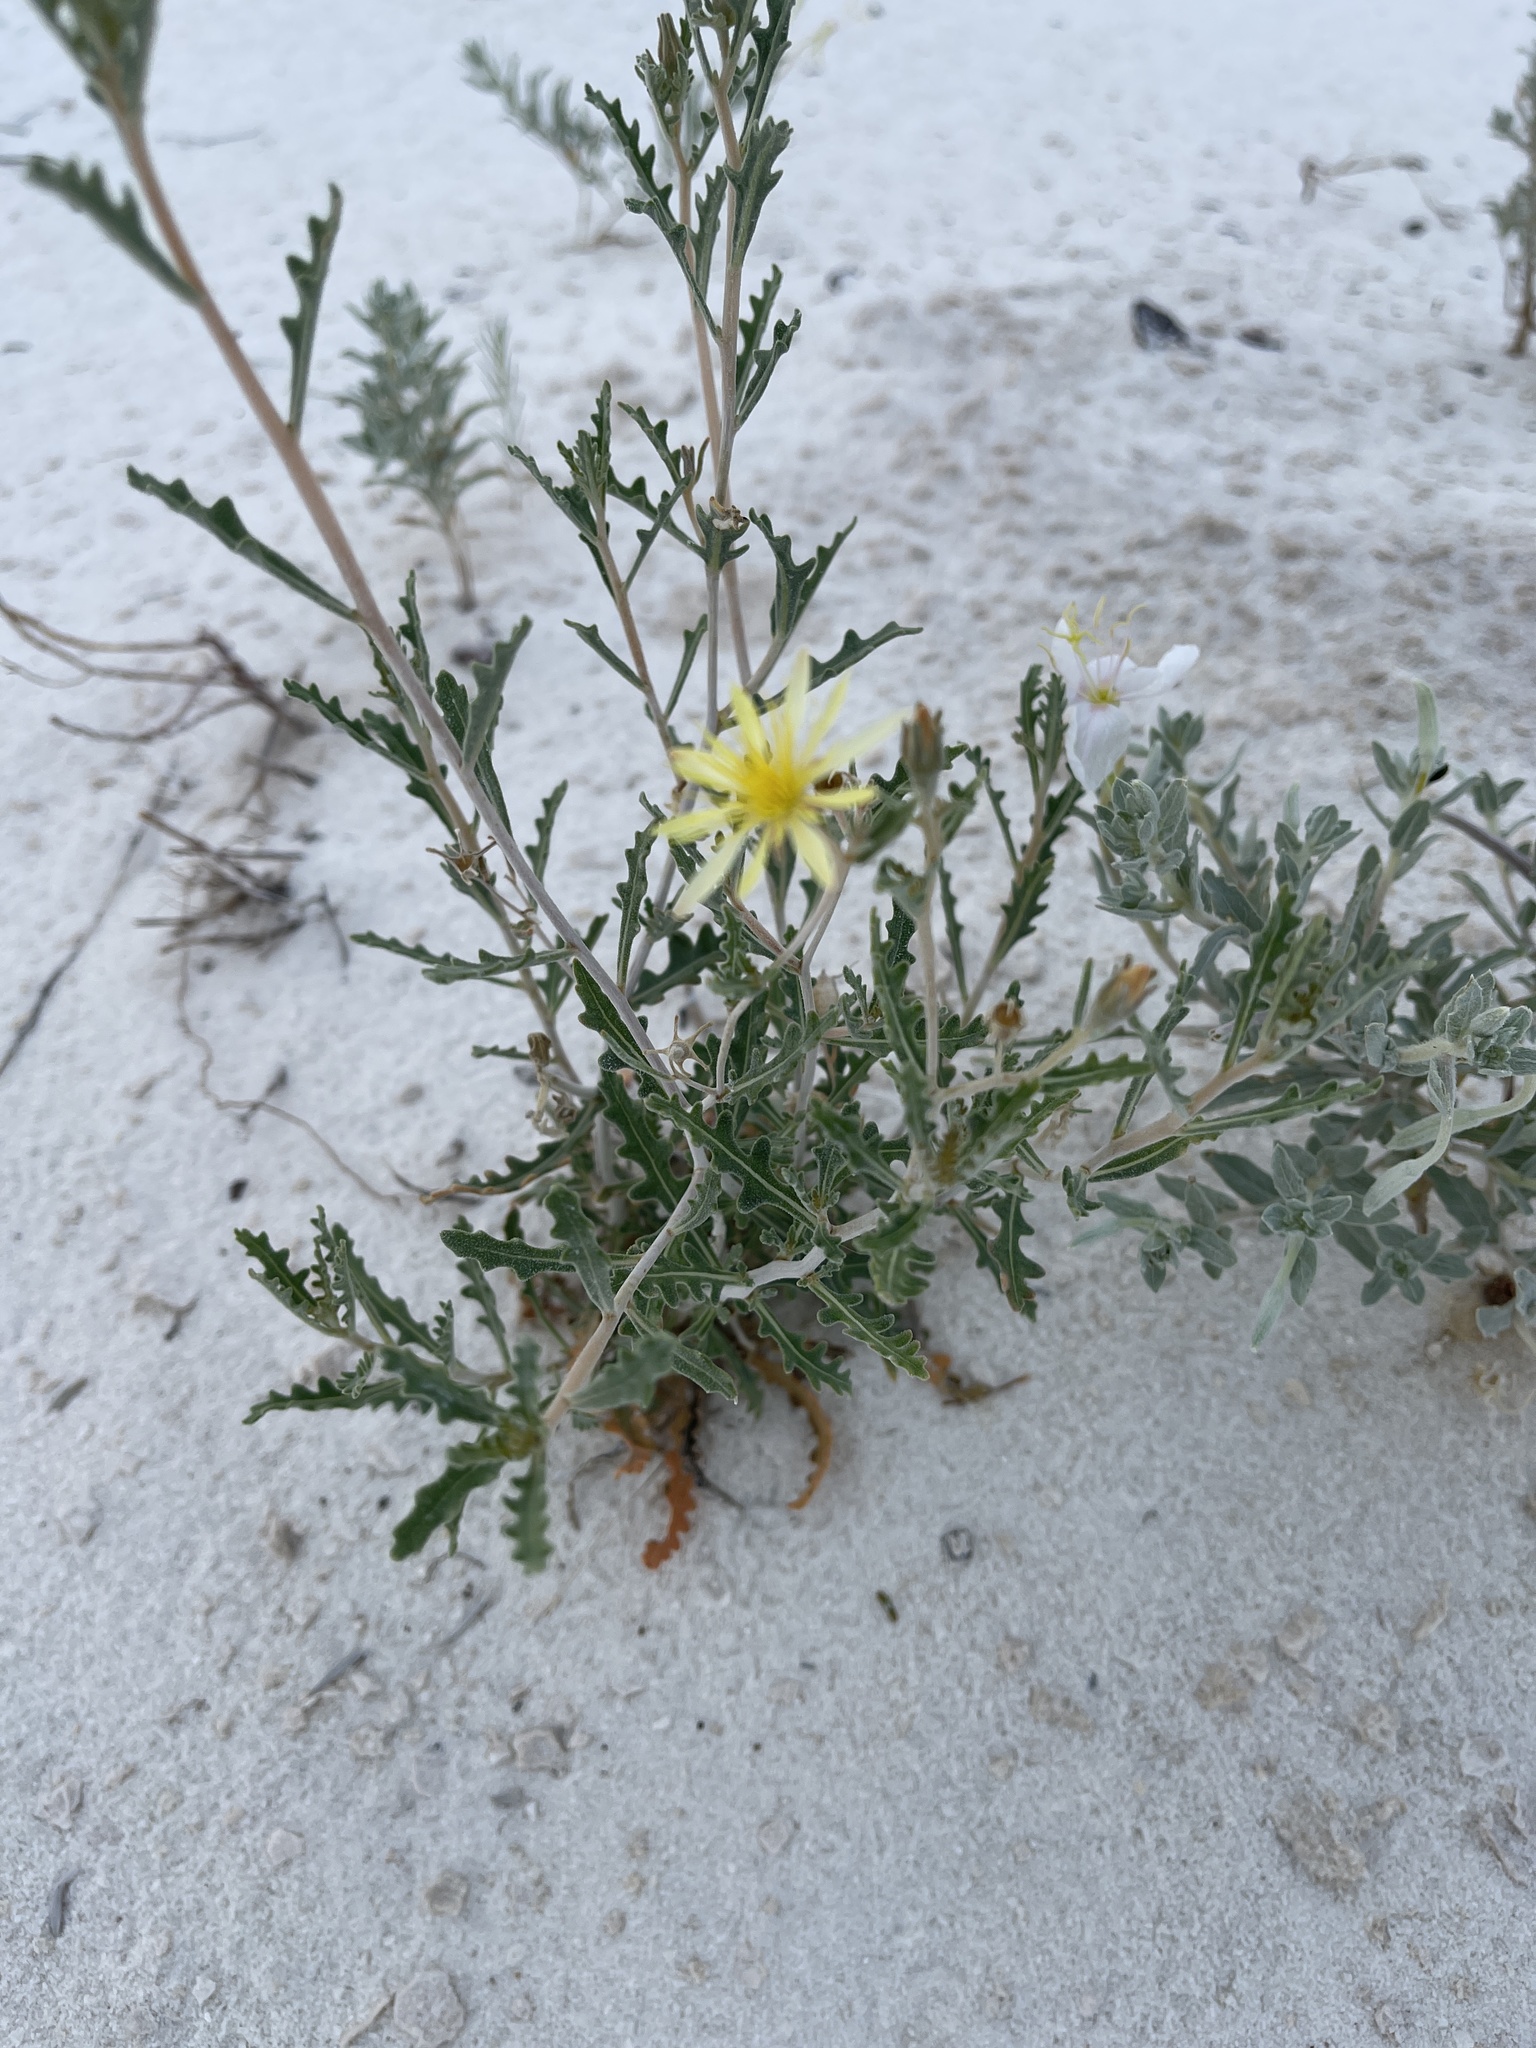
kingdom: Plantae
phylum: Tracheophyta
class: Magnoliopsida
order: Cornales
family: Loasaceae
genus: Mentzelia
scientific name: Mentzelia procera
